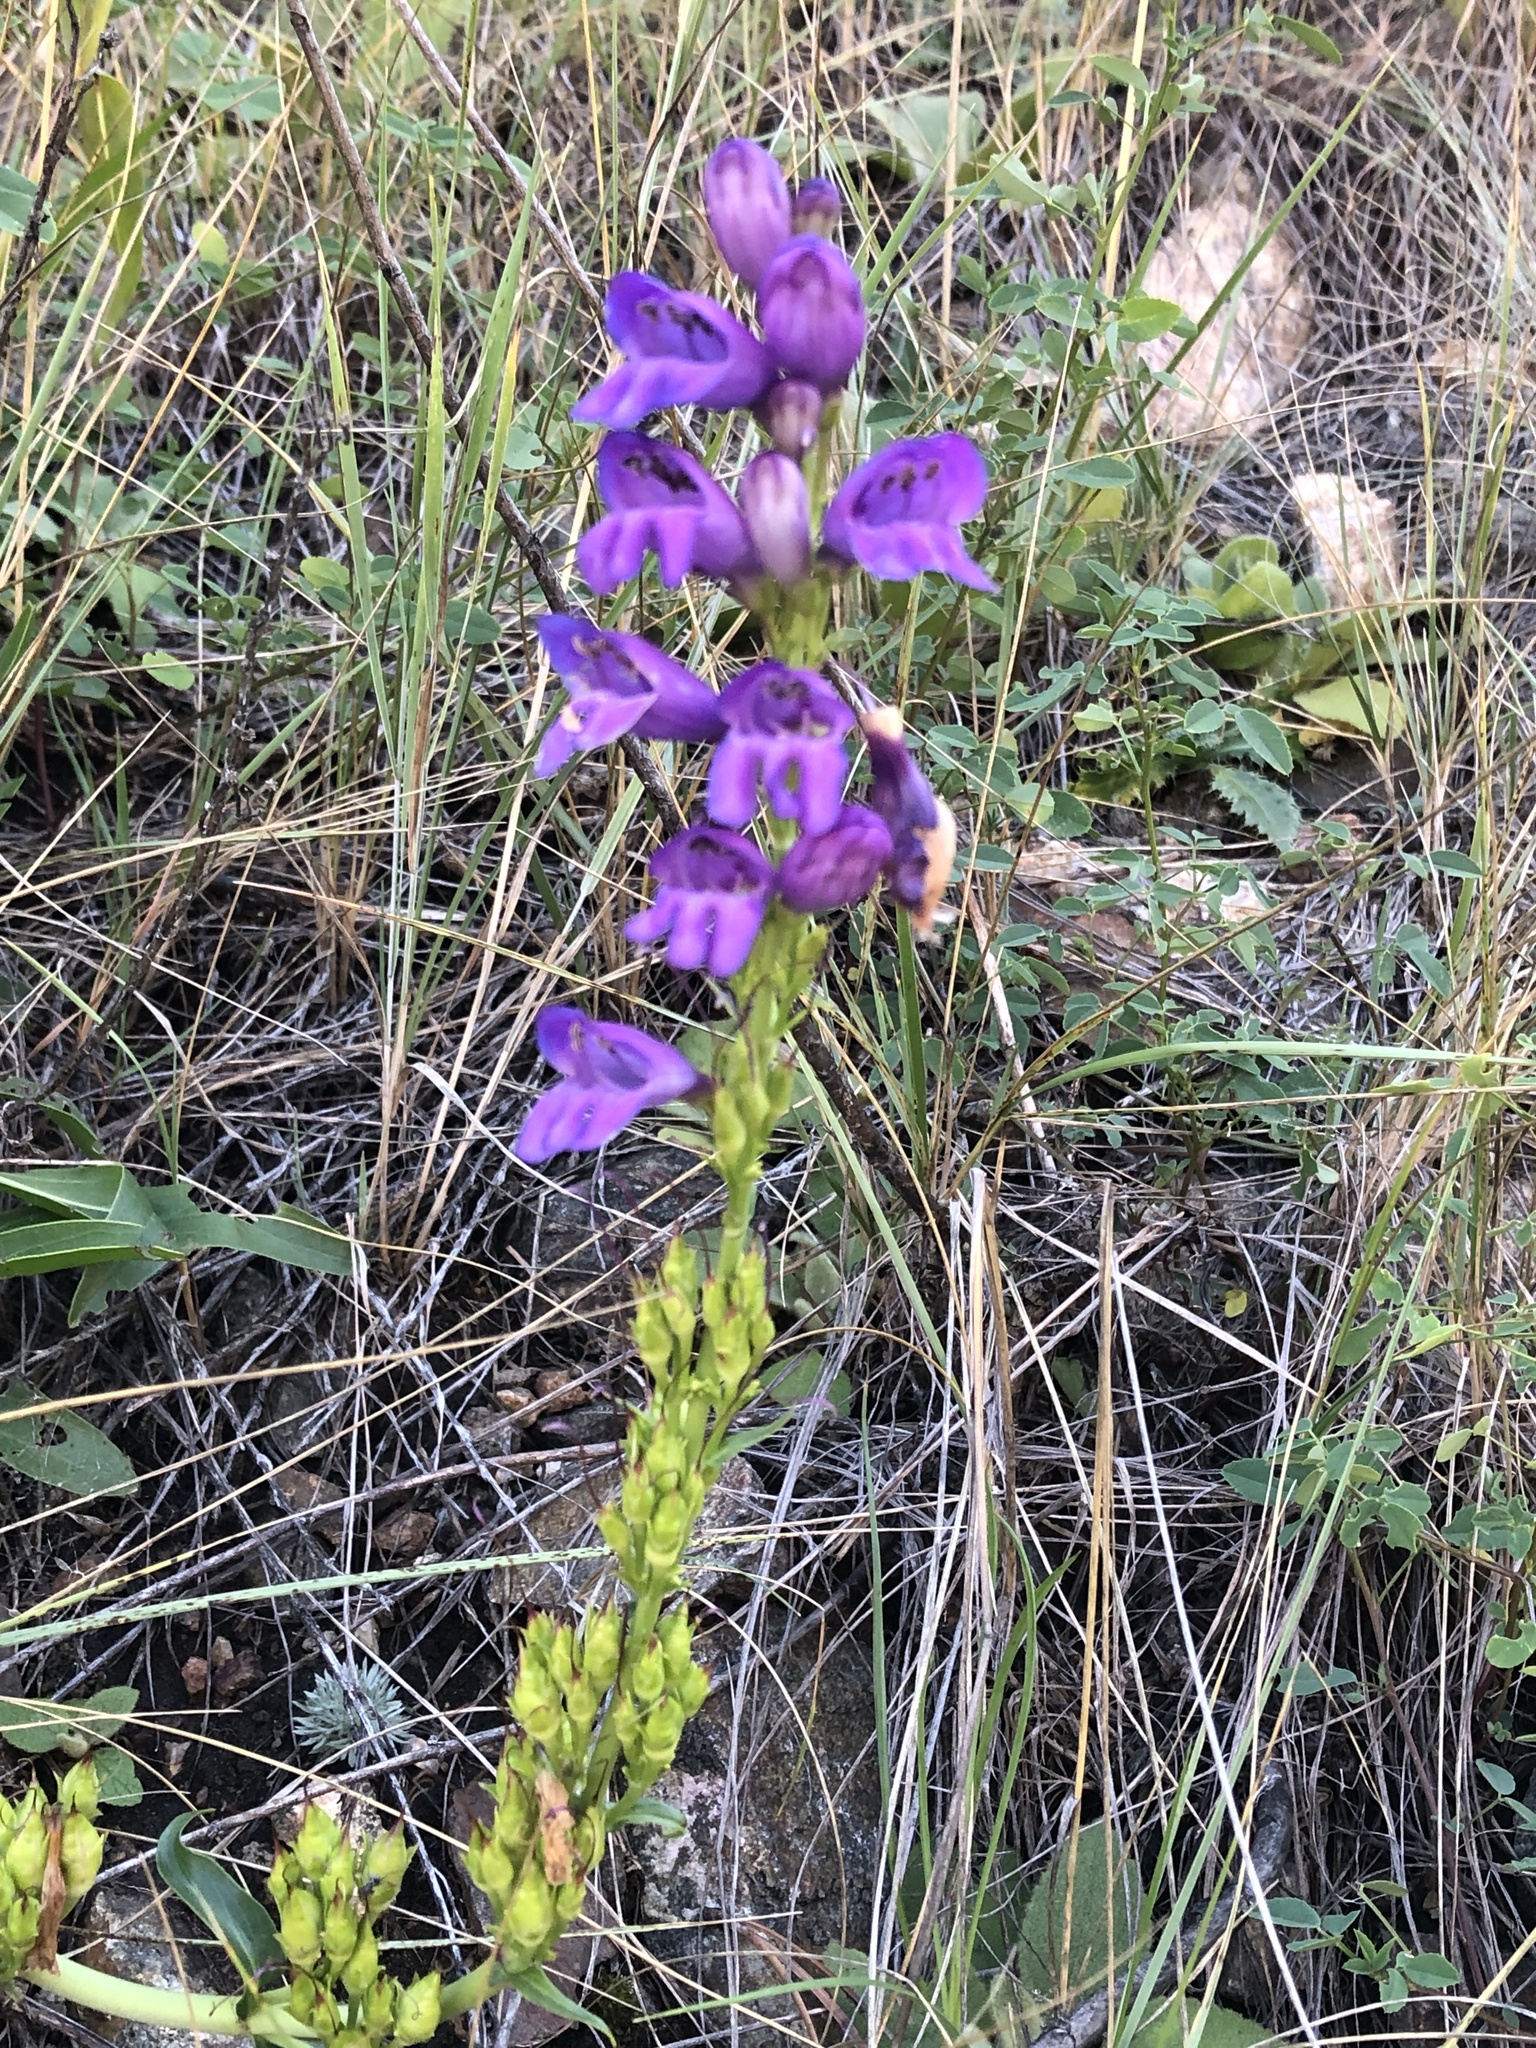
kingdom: Plantae
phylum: Tracheophyta
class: Magnoliopsida
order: Lamiales
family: Plantaginaceae
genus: Penstemon
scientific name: Penstemon strictus
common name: Rocky mountain penstemon
